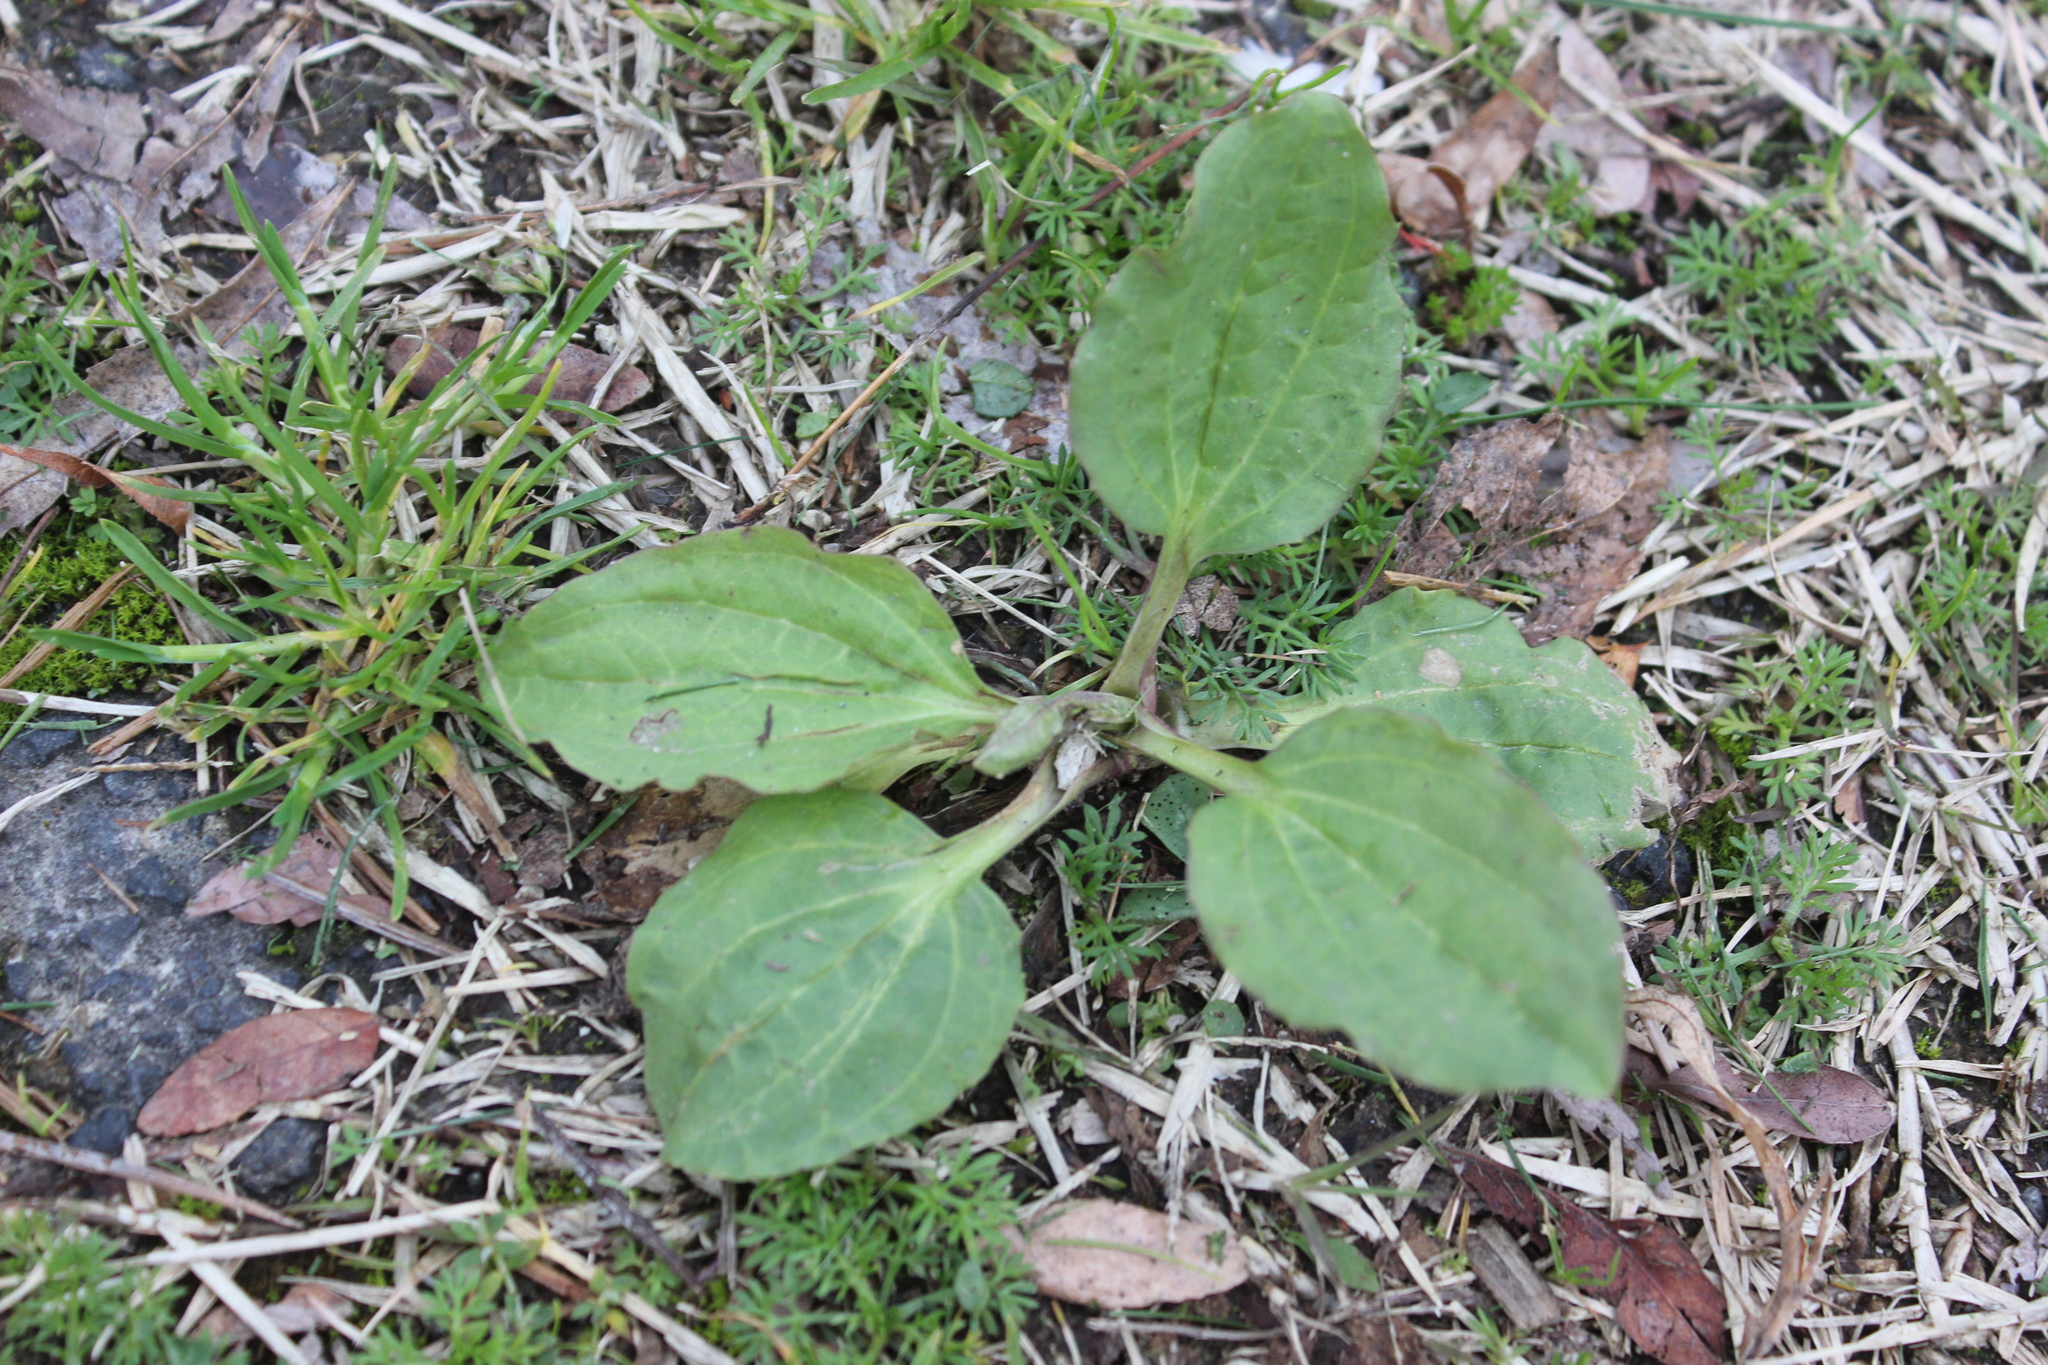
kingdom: Plantae
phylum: Tracheophyta
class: Magnoliopsida
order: Lamiales
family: Plantaginaceae
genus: Plantago
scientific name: Plantago major
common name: Common plantain
